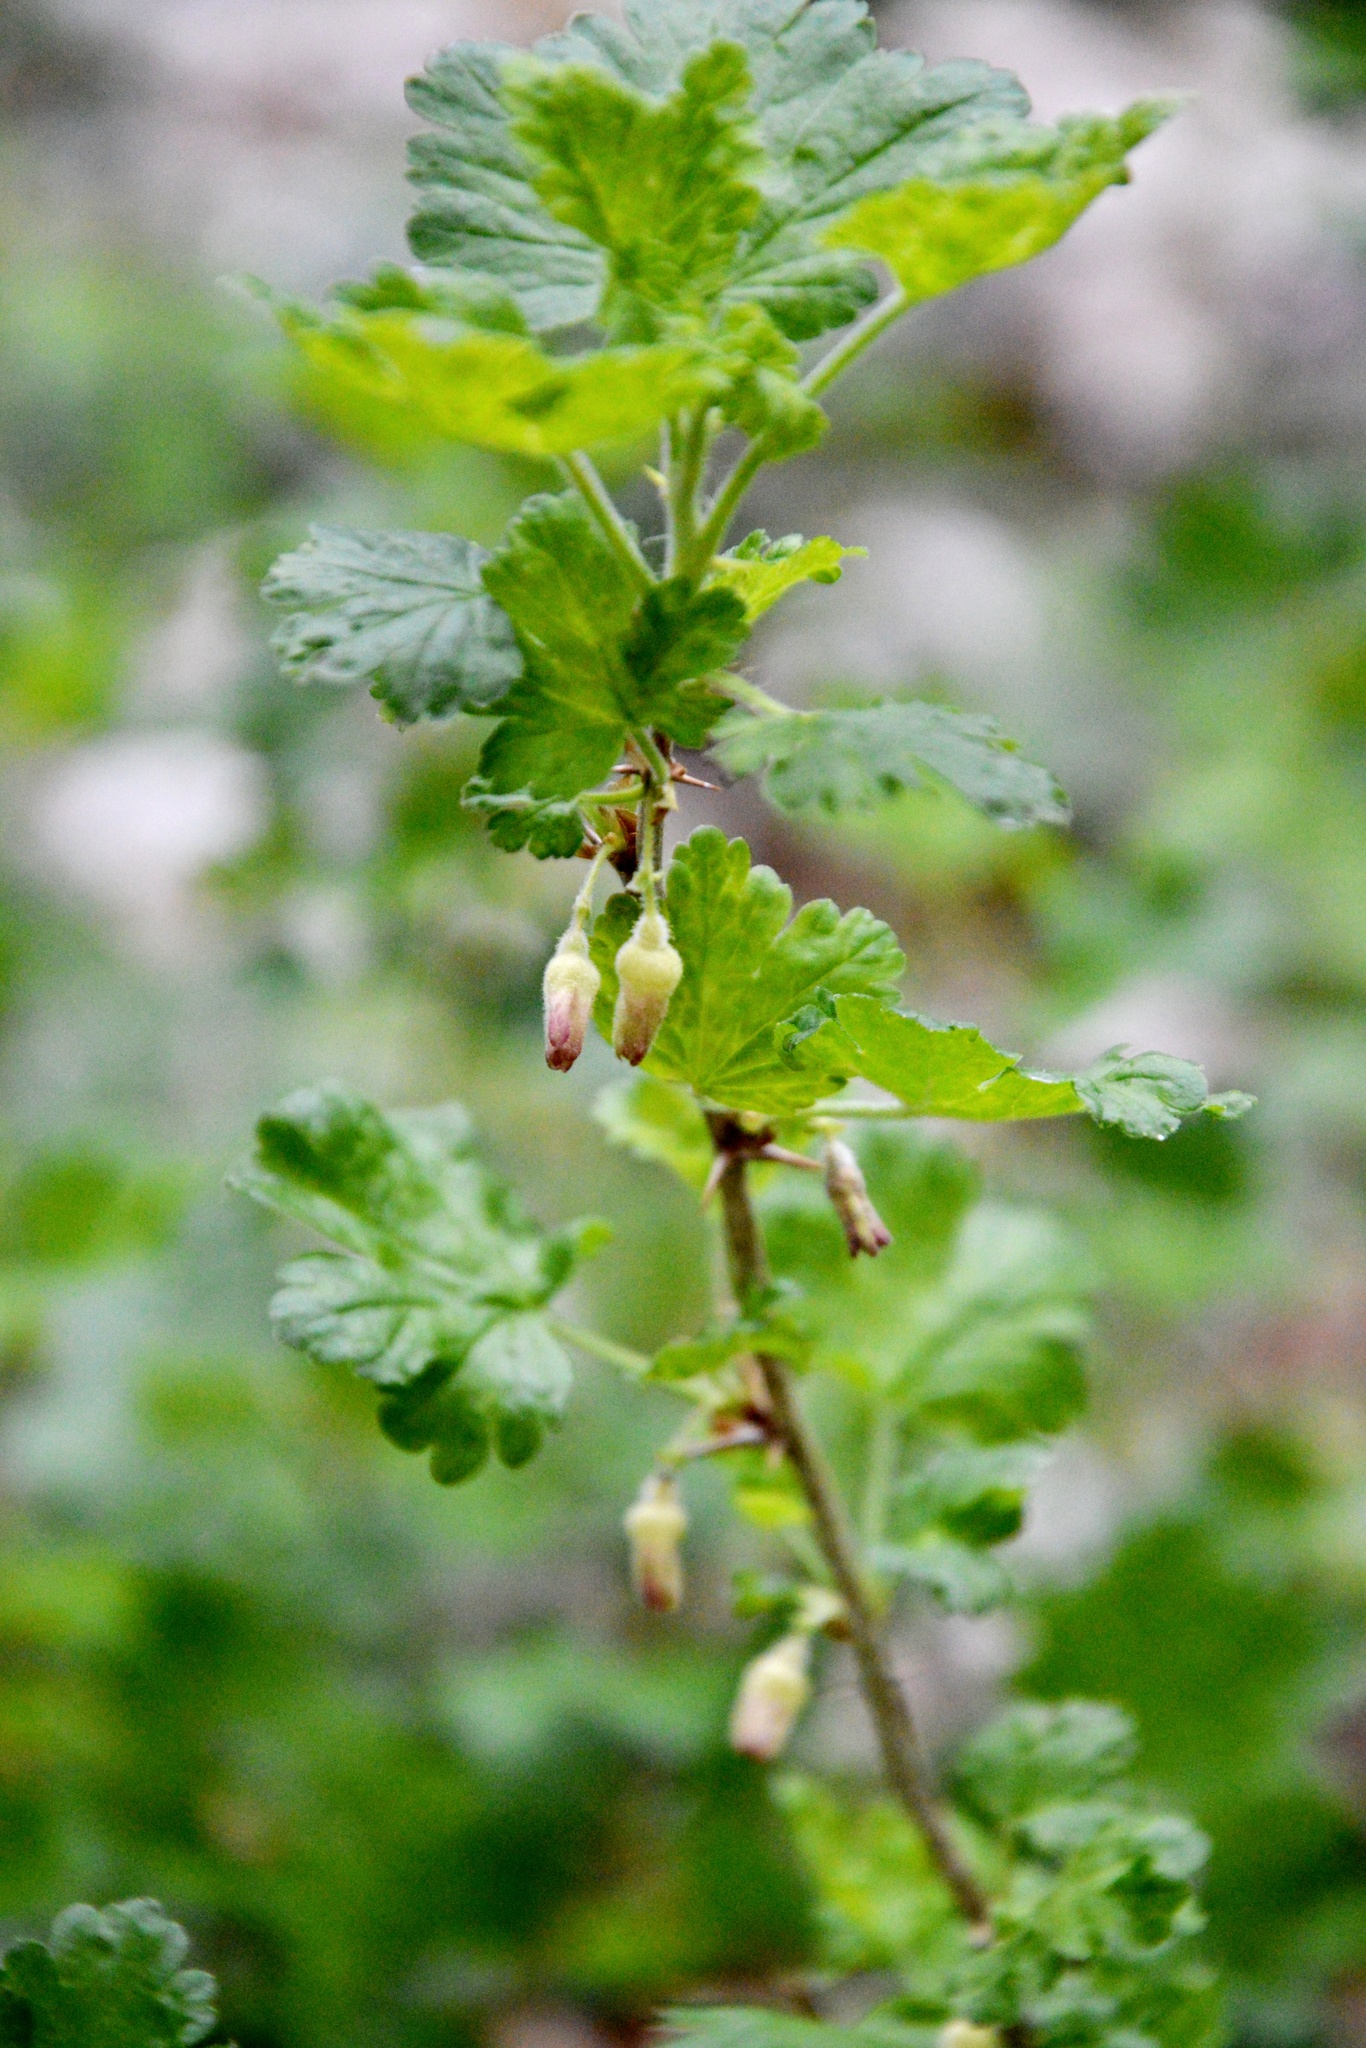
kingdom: Plantae
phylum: Tracheophyta
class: Magnoliopsida
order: Saxifragales
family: Grossulariaceae
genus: Ribes
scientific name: Ribes uva-crispa
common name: Gooseberry
